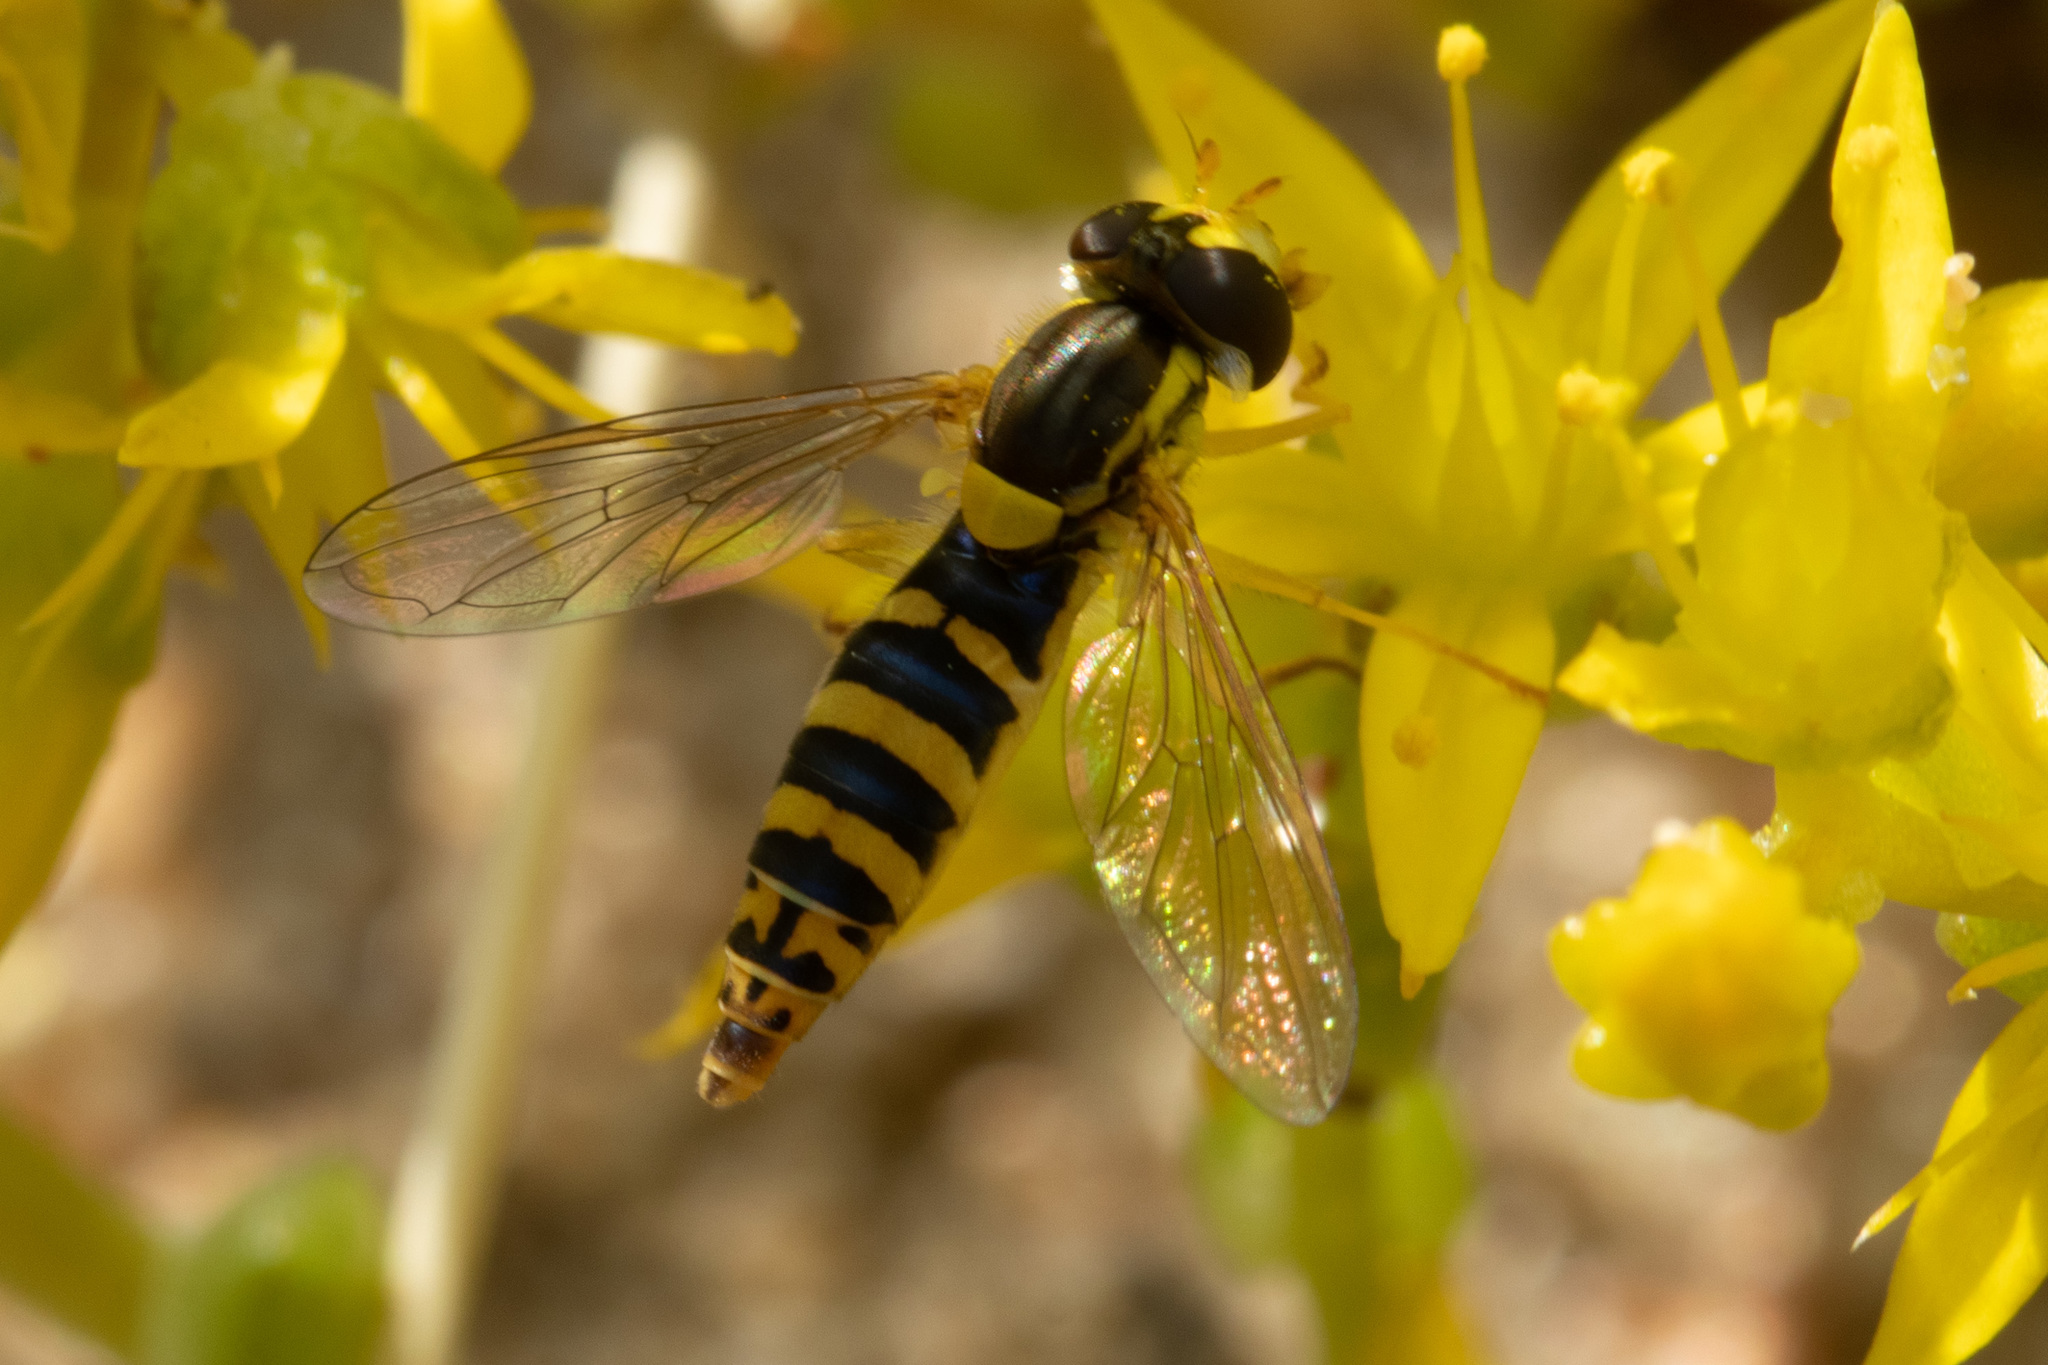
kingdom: Animalia
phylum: Arthropoda
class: Insecta
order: Diptera
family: Syrphidae
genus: Sphaerophoria
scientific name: Sphaerophoria
